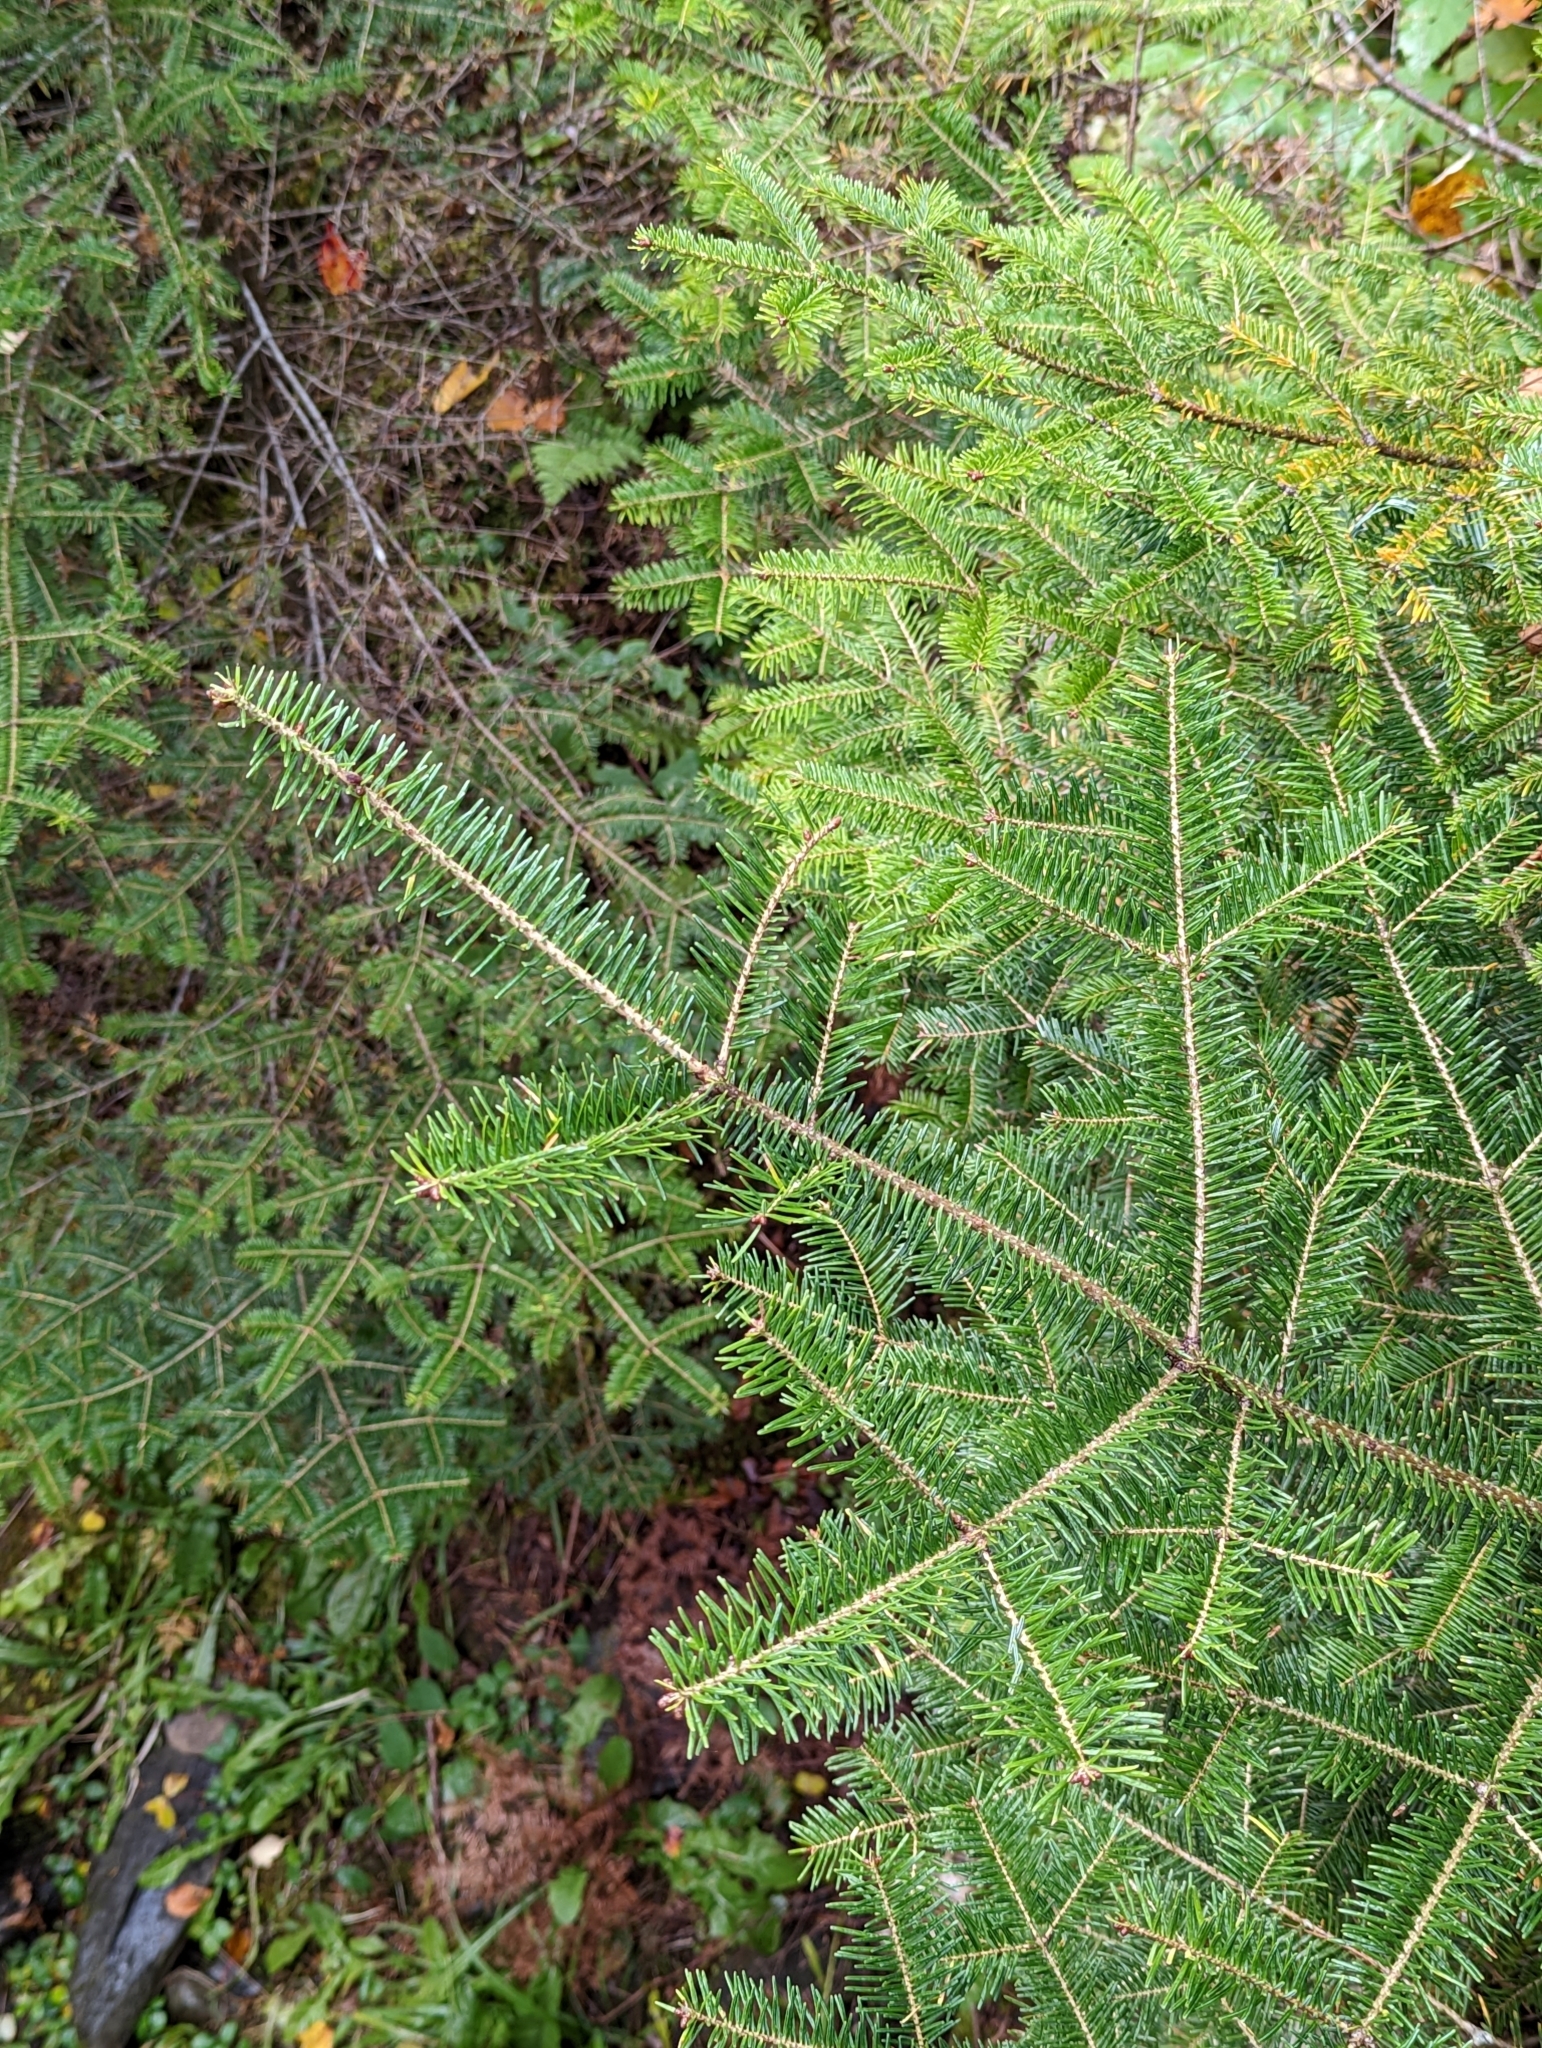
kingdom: Plantae
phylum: Tracheophyta
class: Pinopsida
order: Pinales
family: Pinaceae
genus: Abies
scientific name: Abies balsamea
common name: Balsam fir
